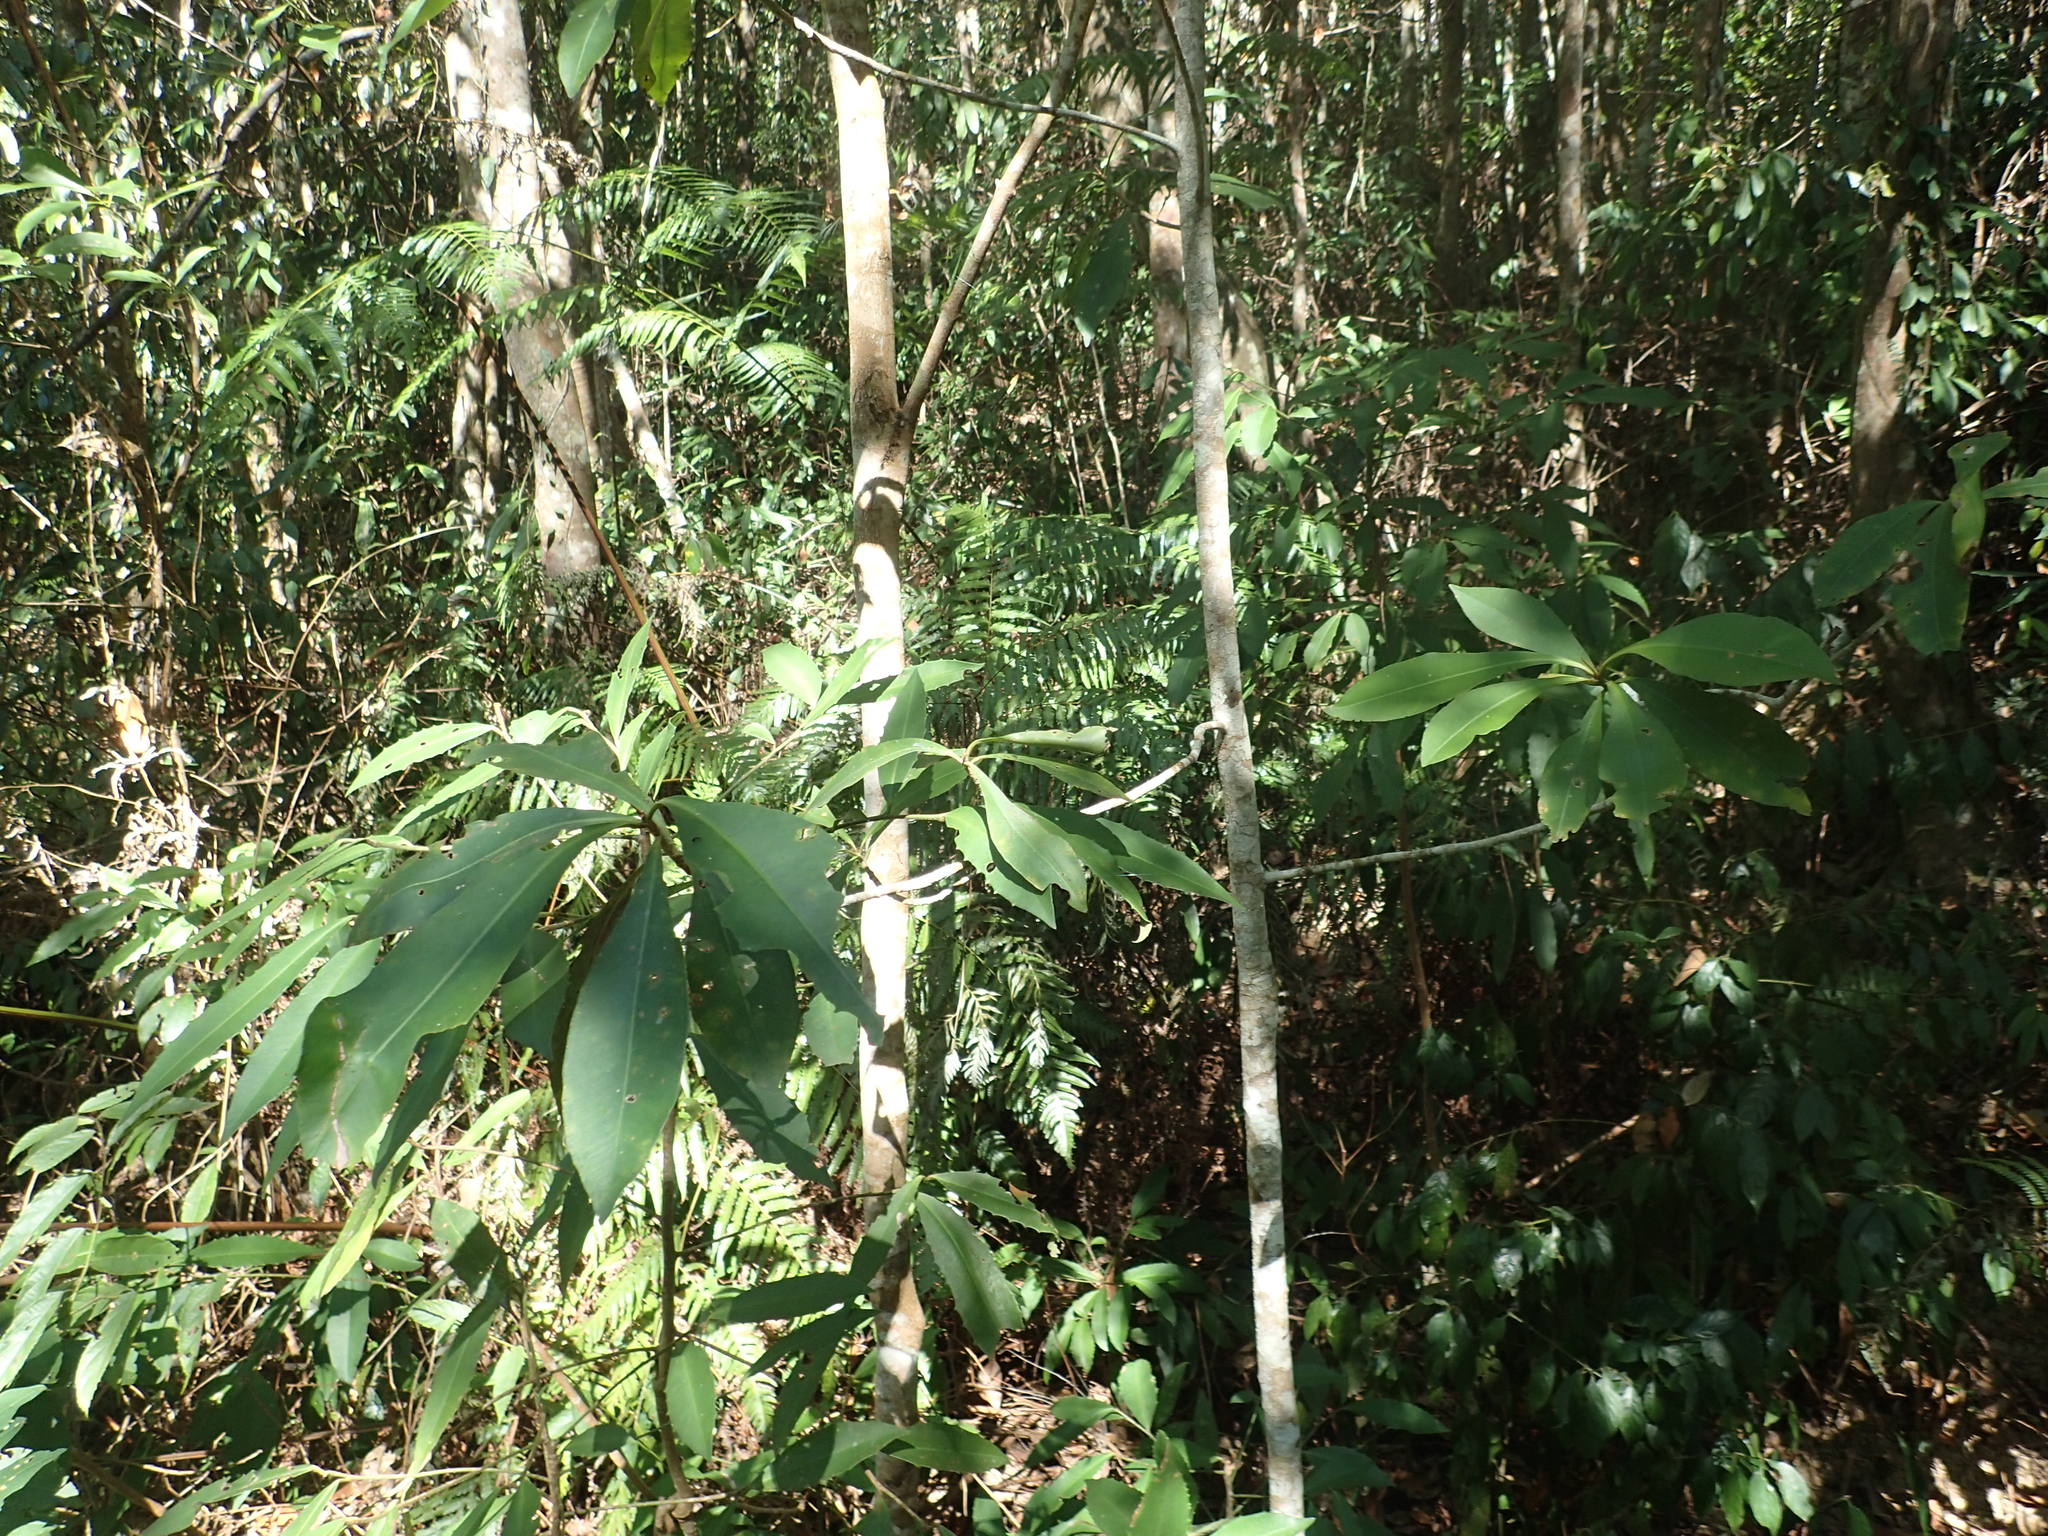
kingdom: Plantae
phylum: Tracheophyta
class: Magnoliopsida
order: Ericales
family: Primulaceae
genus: Ardisia
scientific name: Ardisia sieboldii
